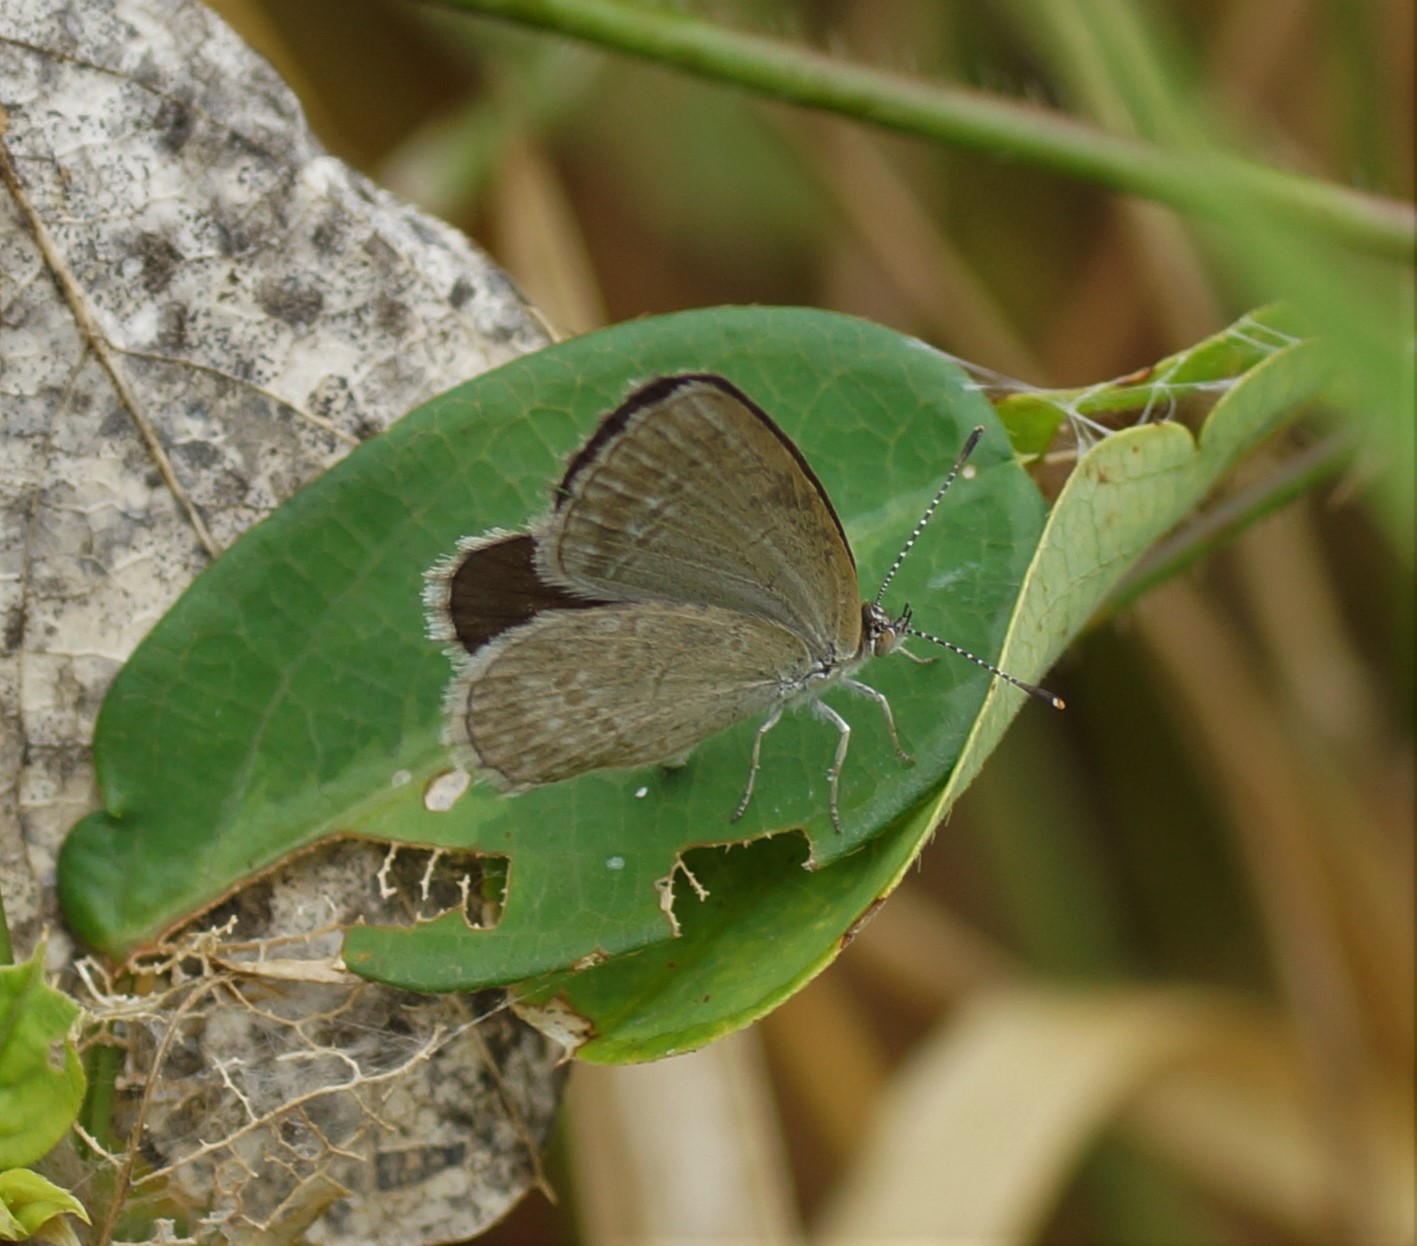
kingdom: Animalia
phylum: Arthropoda
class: Insecta
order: Lepidoptera
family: Lycaenidae
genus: Zizina
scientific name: Zizina otis
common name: Lesser grass blue
